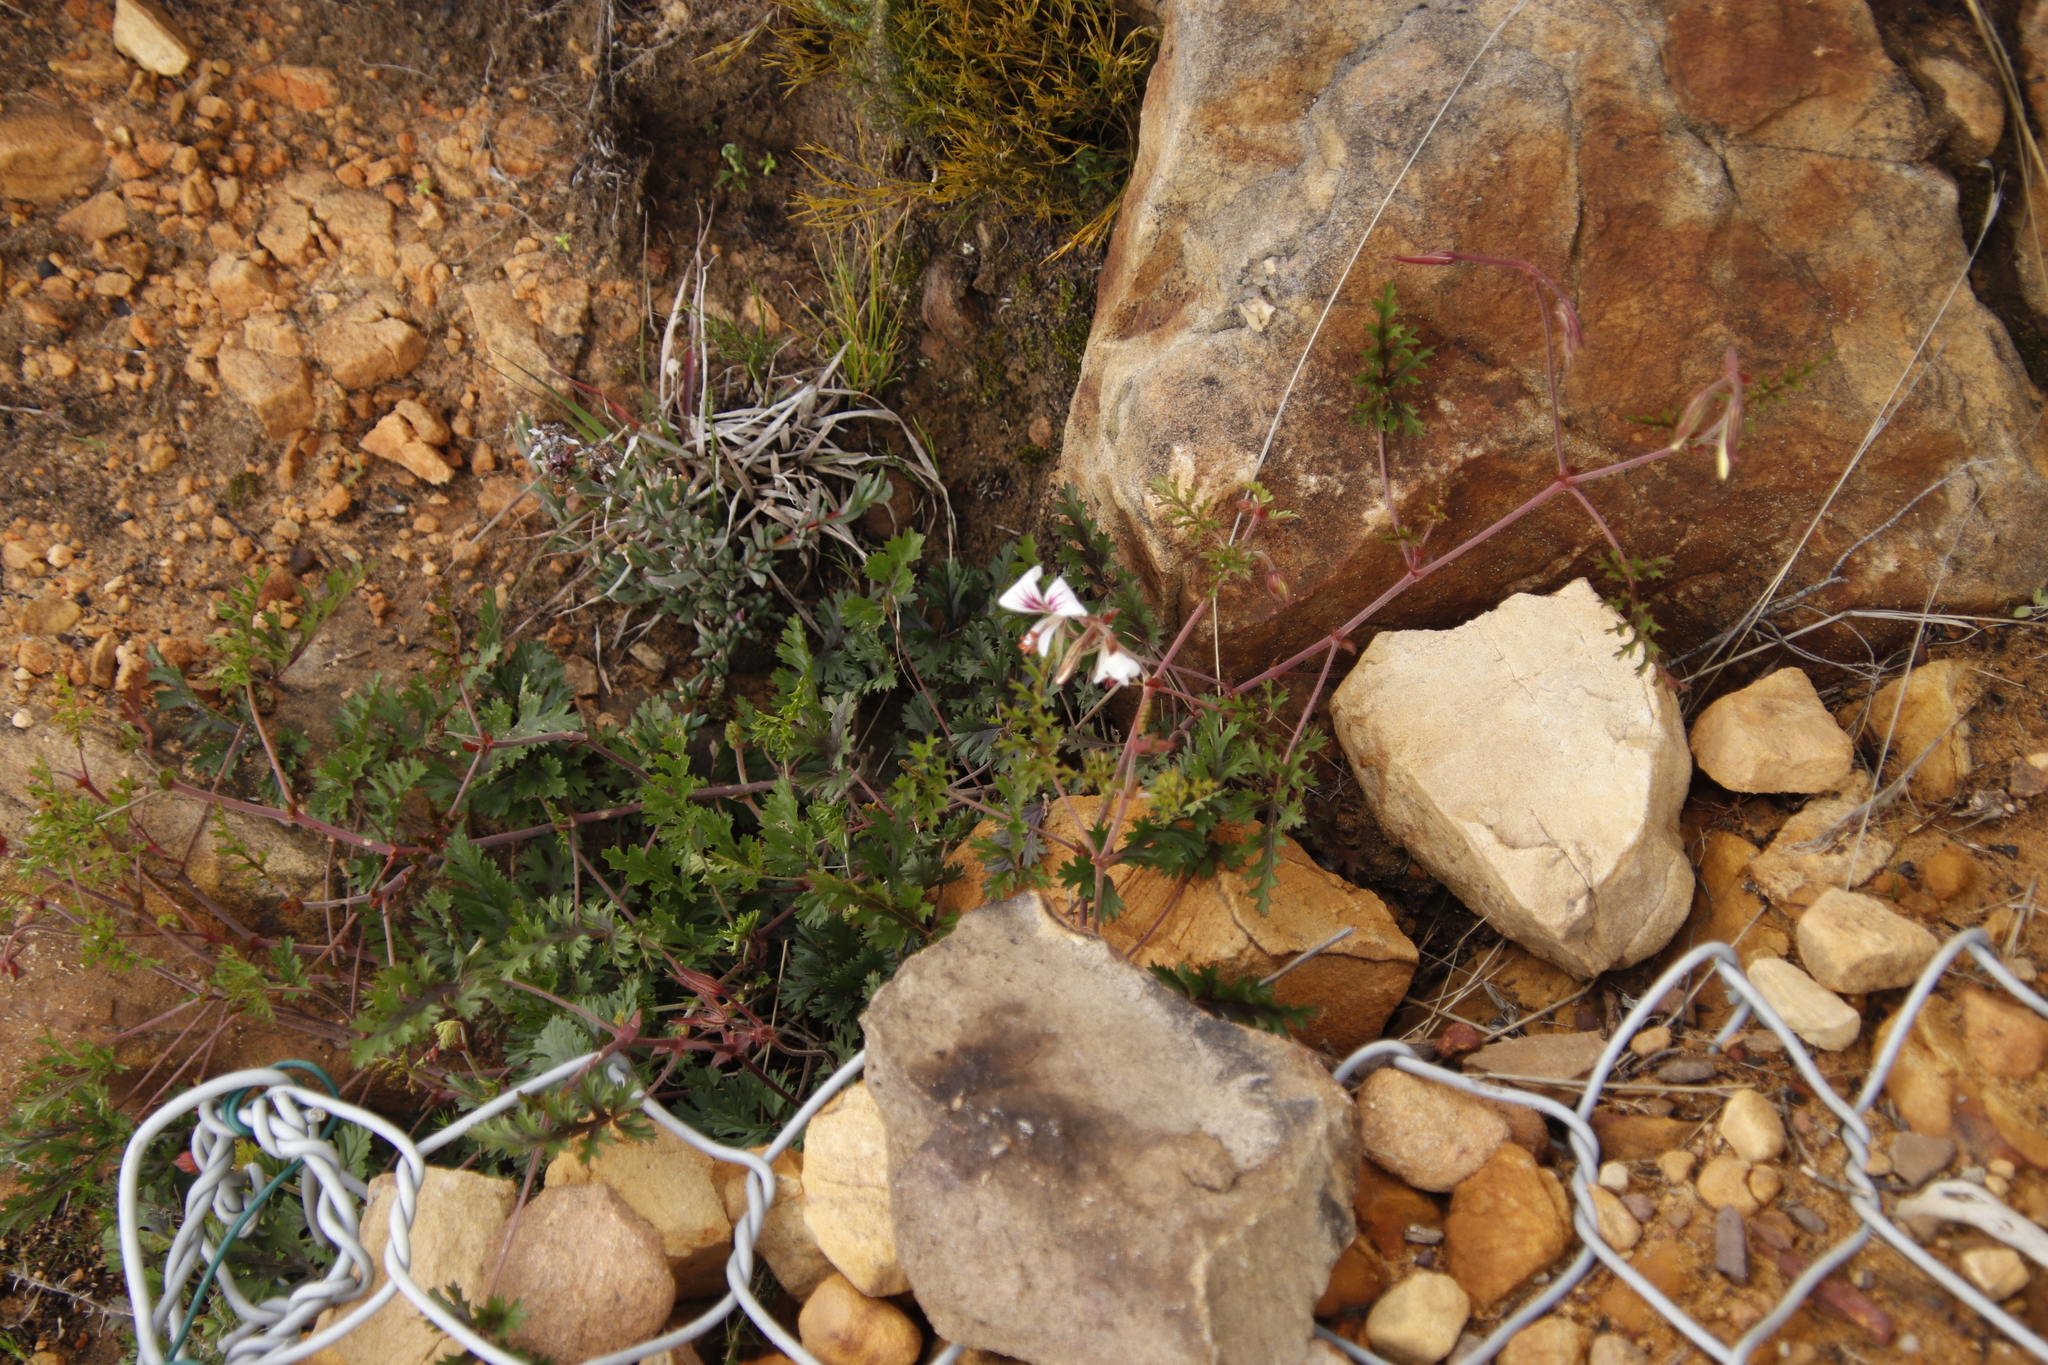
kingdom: Plantae
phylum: Tracheophyta
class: Magnoliopsida
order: Geraniales
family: Geraniaceae
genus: Pelargonium
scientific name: Pelargonium myrrhifolium
